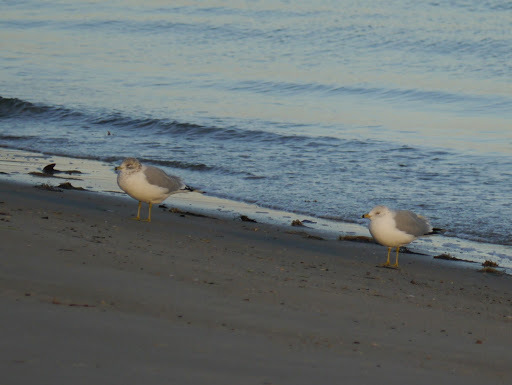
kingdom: Animalia
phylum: Chordata
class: Aves
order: Charadriiformes
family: Laridae
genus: Larus
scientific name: Larus delawarensis
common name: Ring-billed gull
